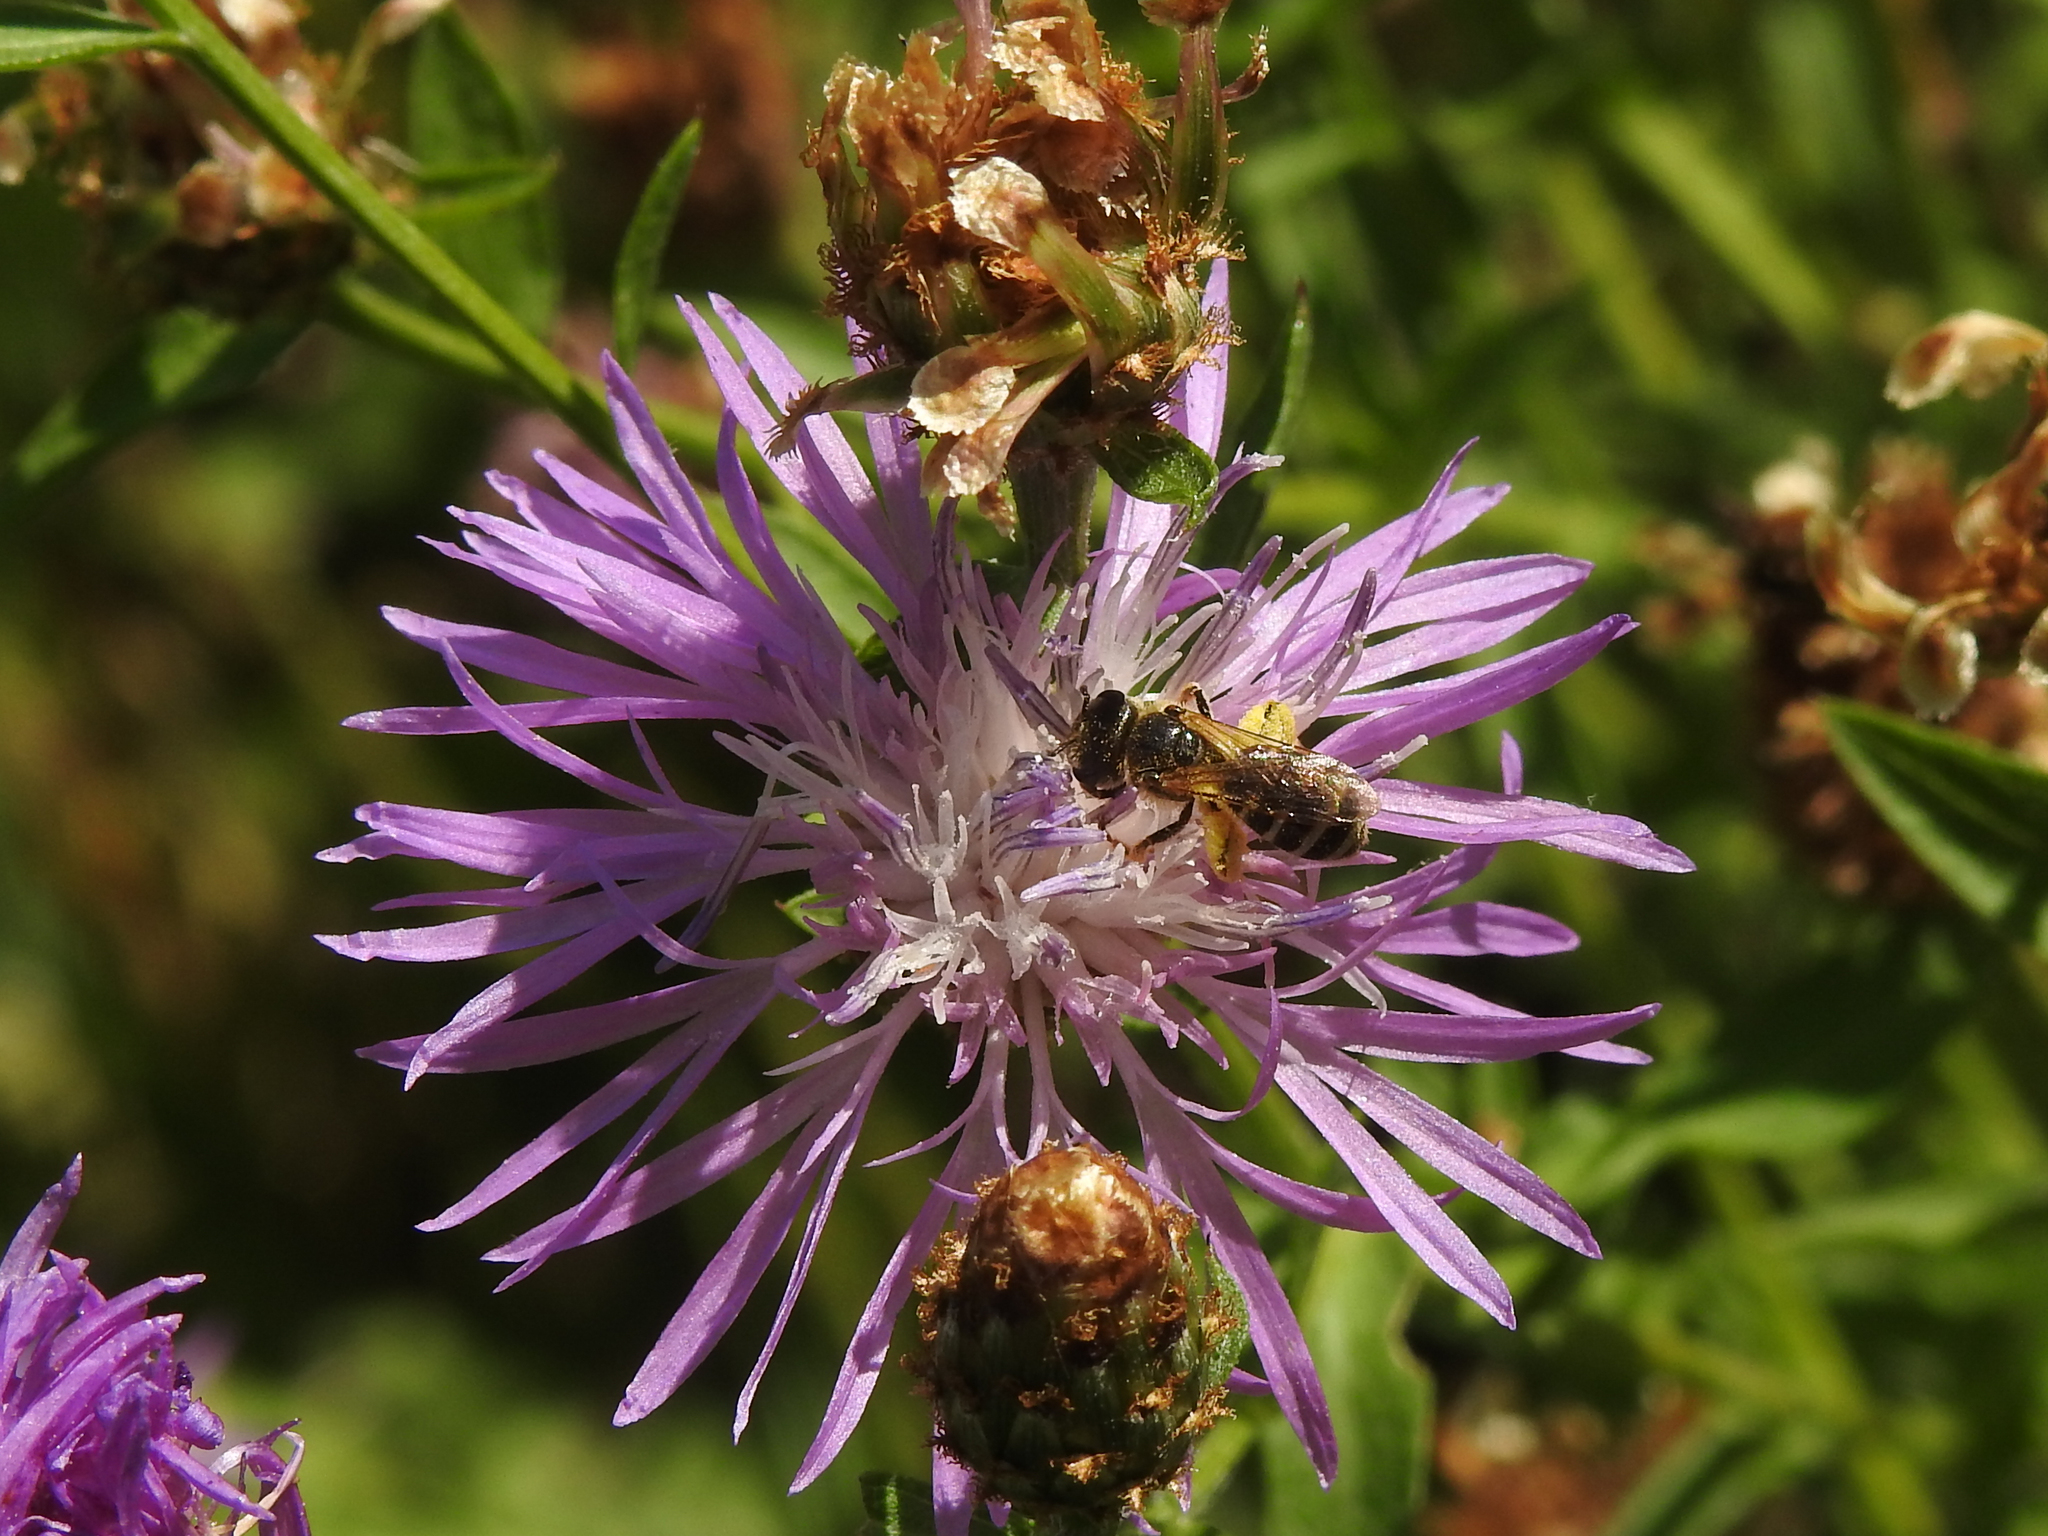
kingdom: Animalia
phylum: Arthropoda
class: Insecta
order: Hymenoptera
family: Halictidae
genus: Halictus
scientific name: Halictus ligatus
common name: Ligated furrow bee
